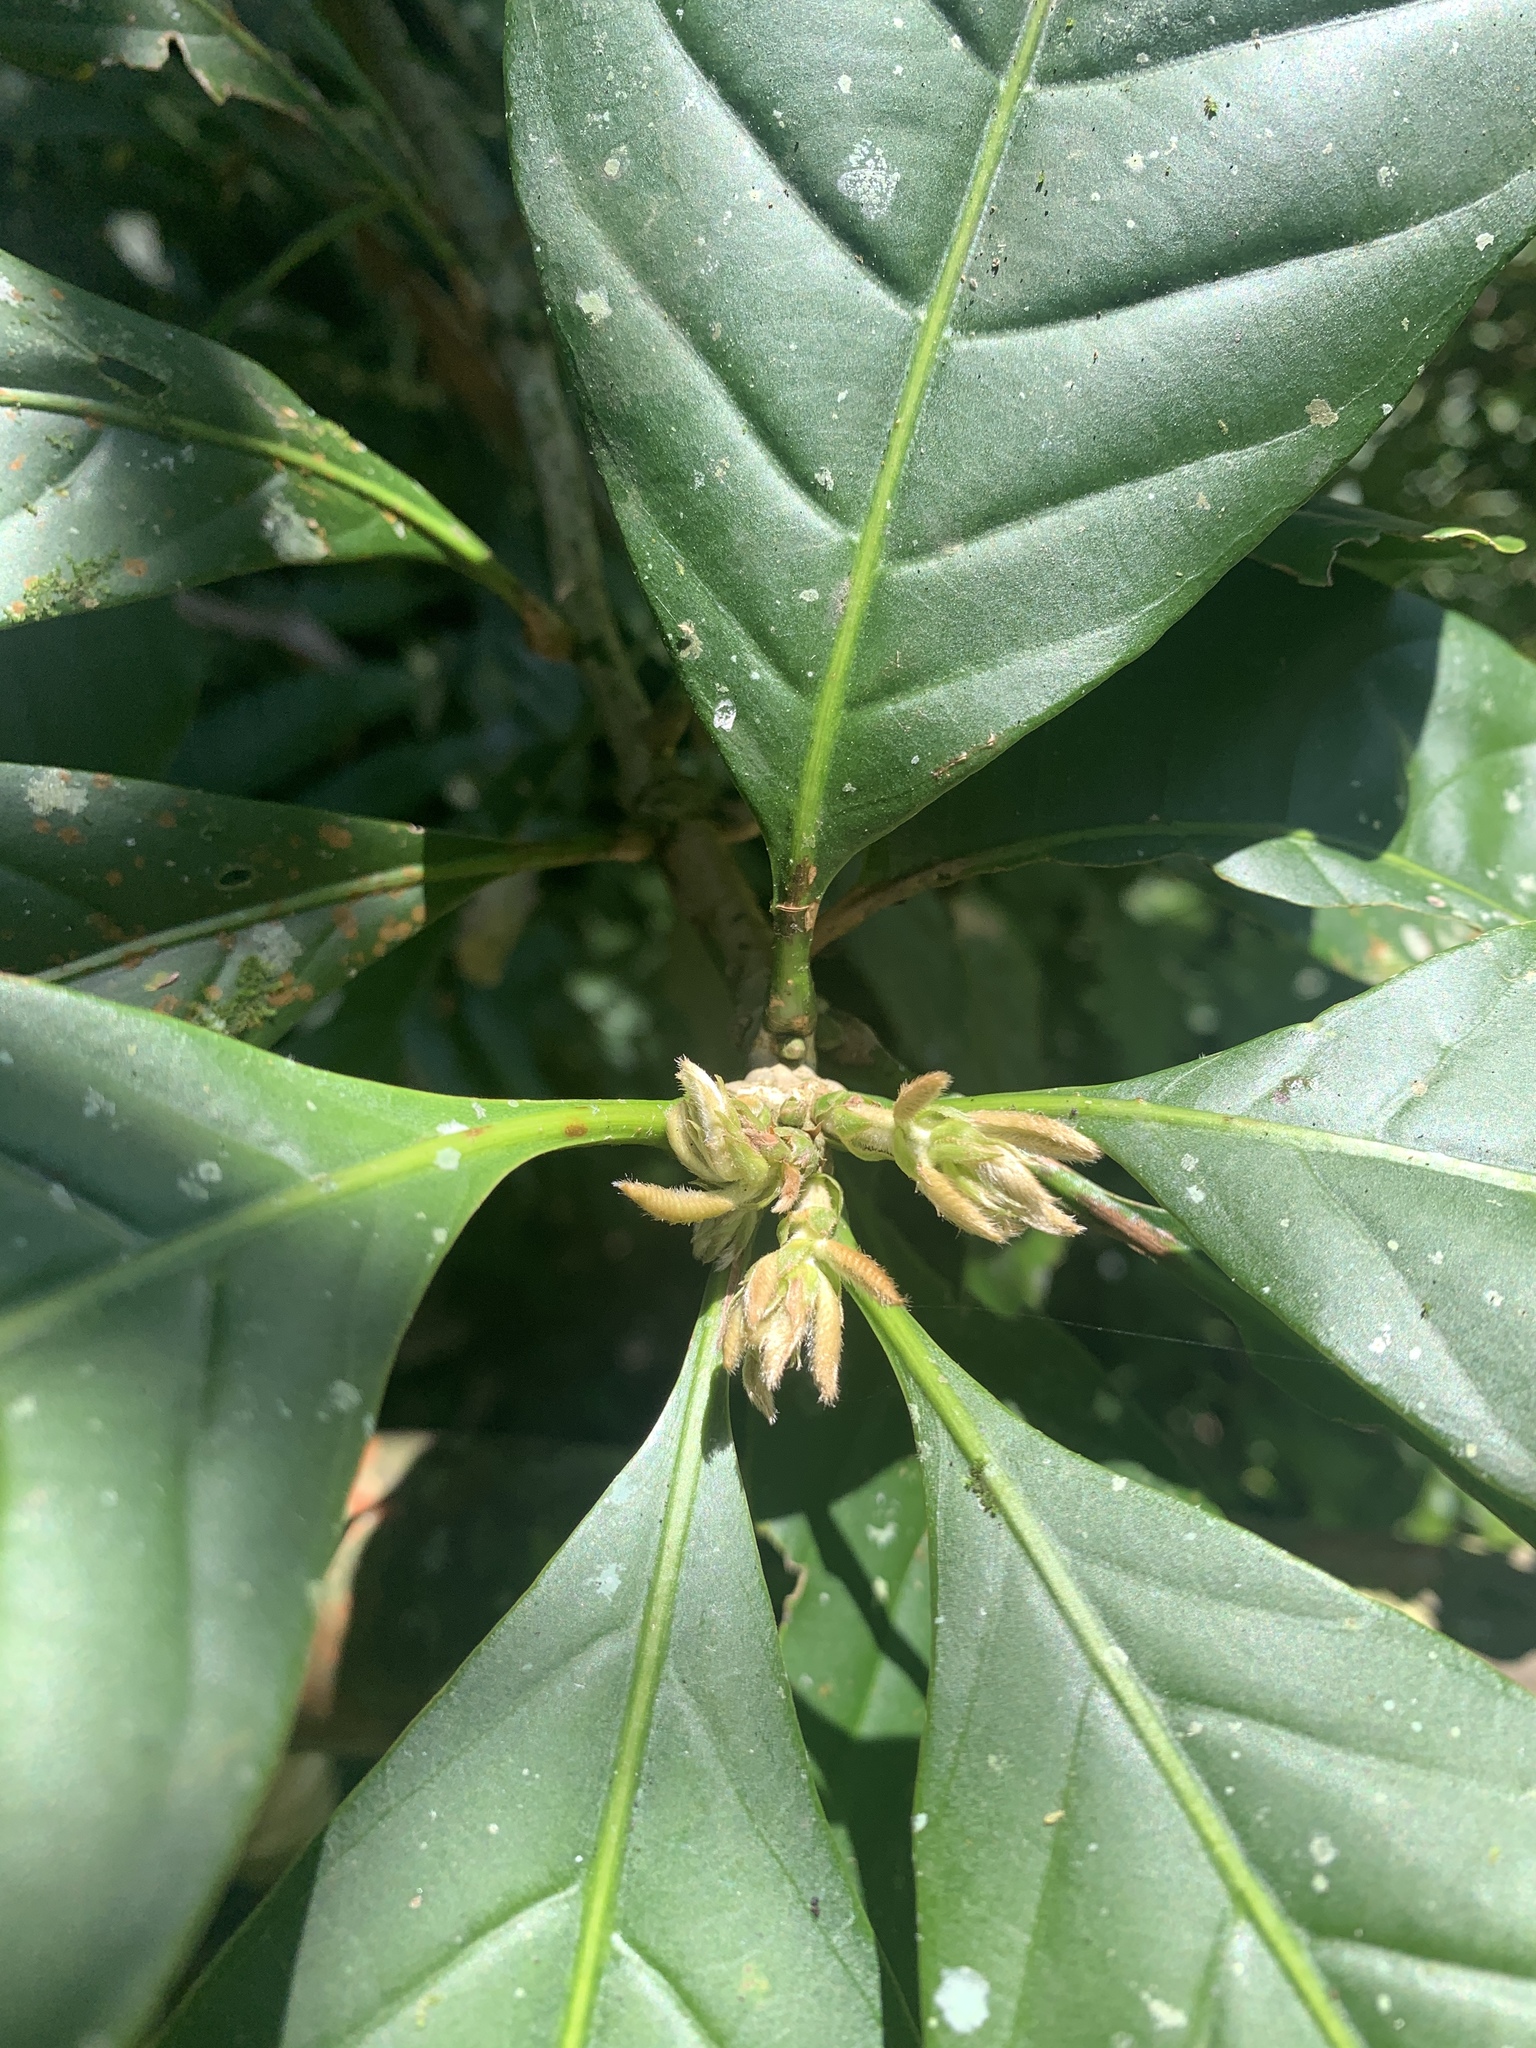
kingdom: Plantae
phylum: Tracheophyta
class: Magnoliopsida
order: Fagales
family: Fagaceae
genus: Lithocarpus
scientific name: Lithocarpus kawakamii
